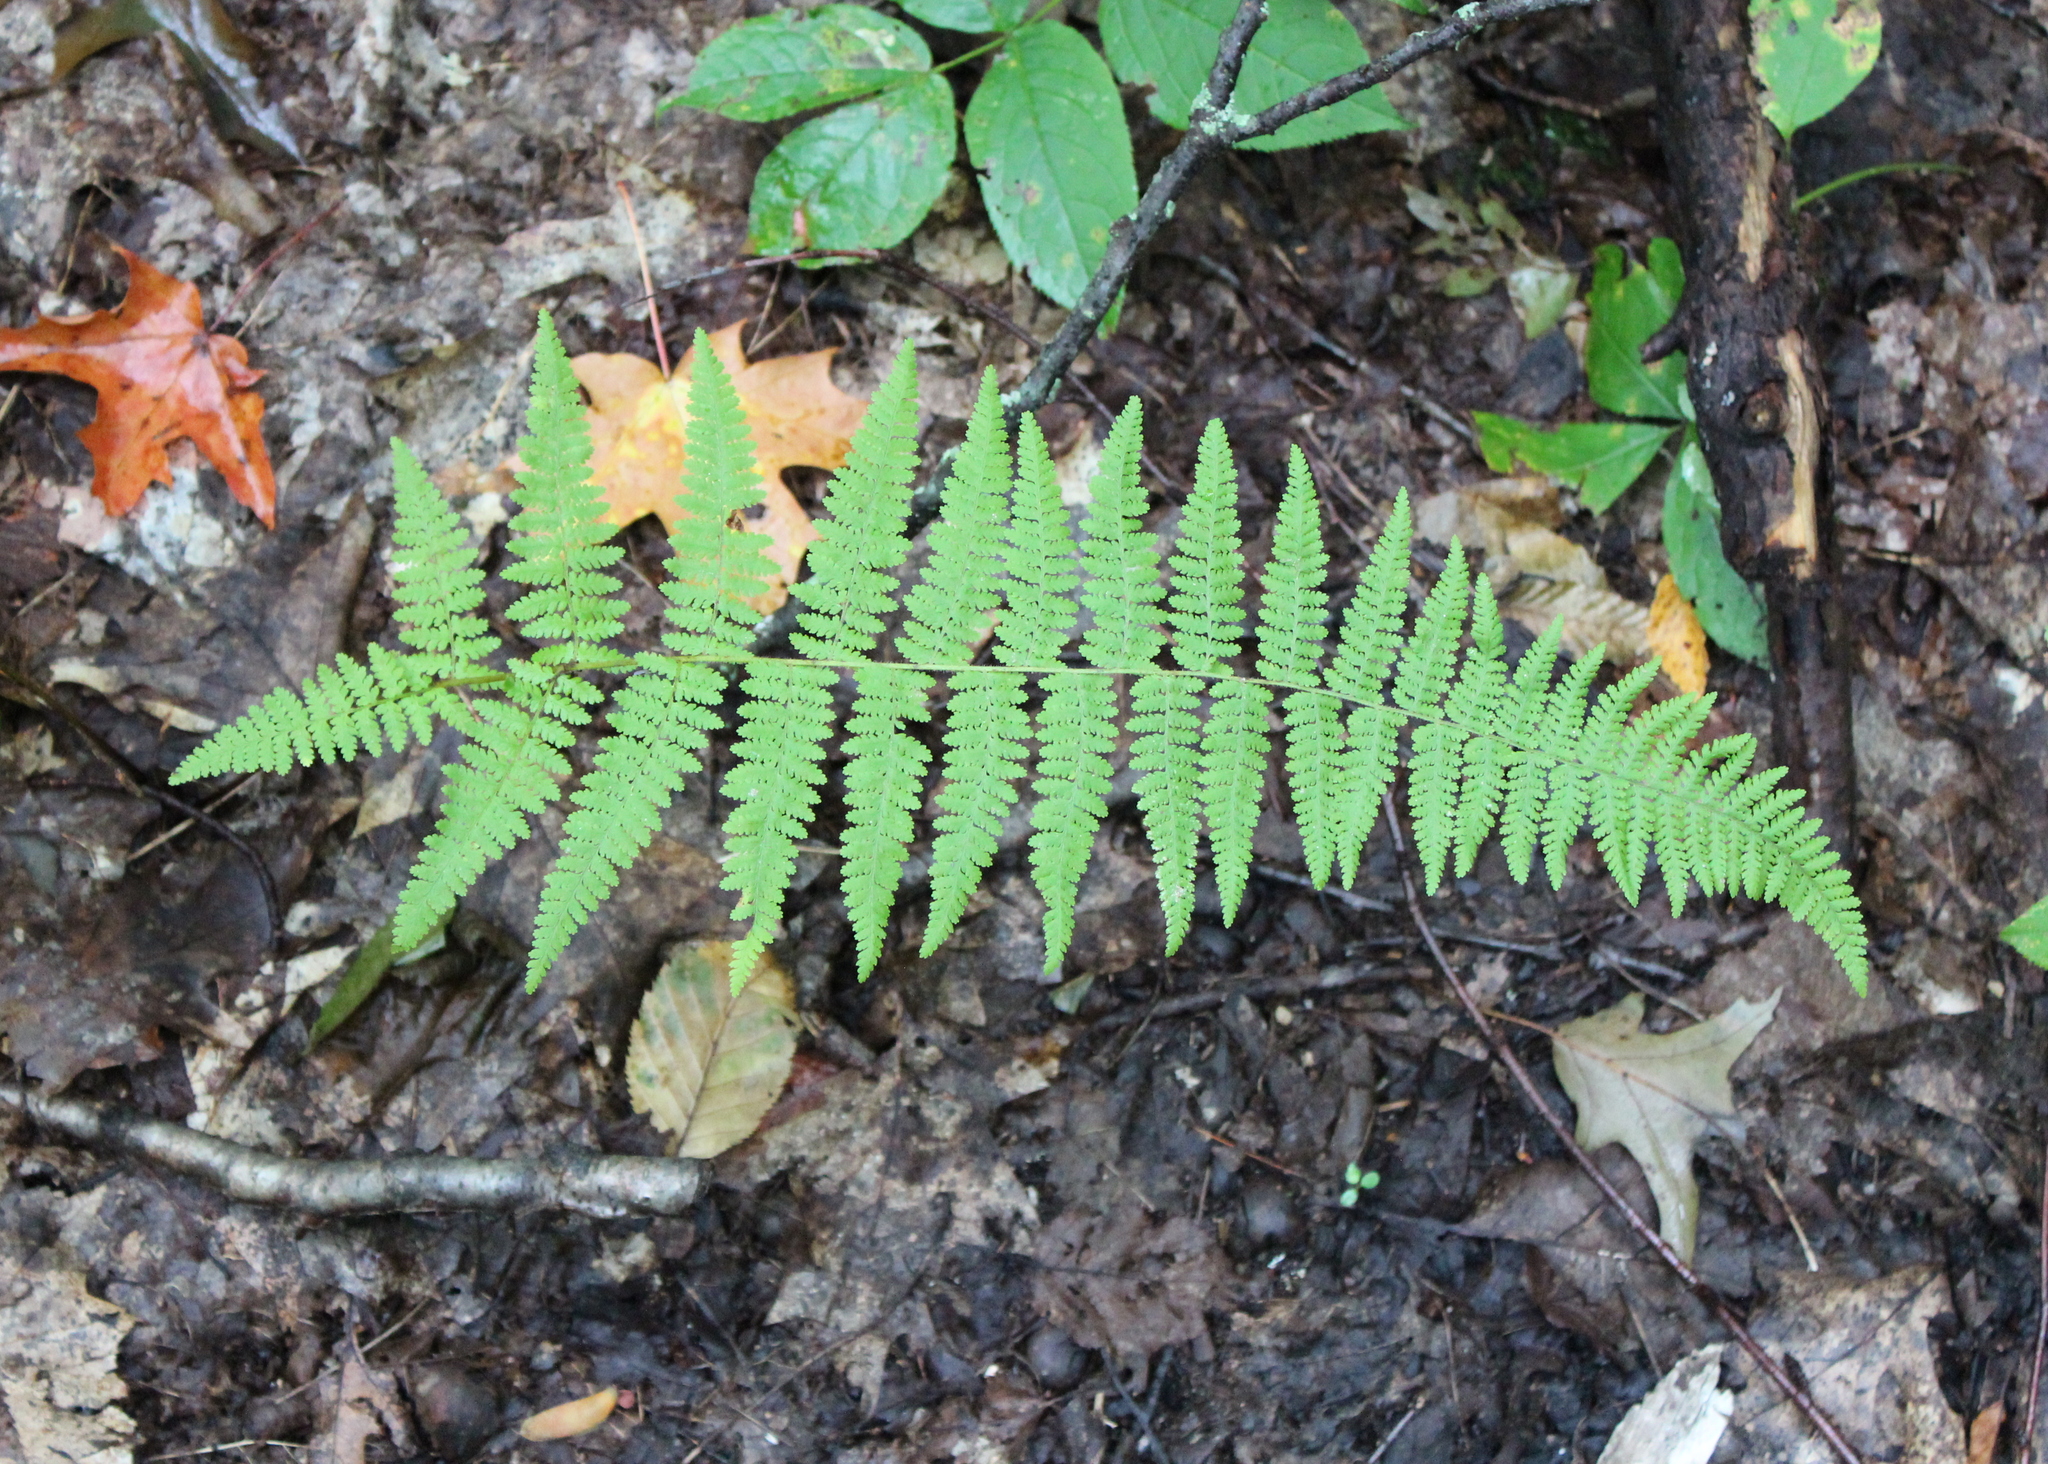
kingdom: Plantae
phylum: Tracheophyta
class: Polypodiopsida
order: Polypodiales
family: Dennstaedtiaceae
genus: Sitobolium
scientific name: Sitobolium punctilobum
